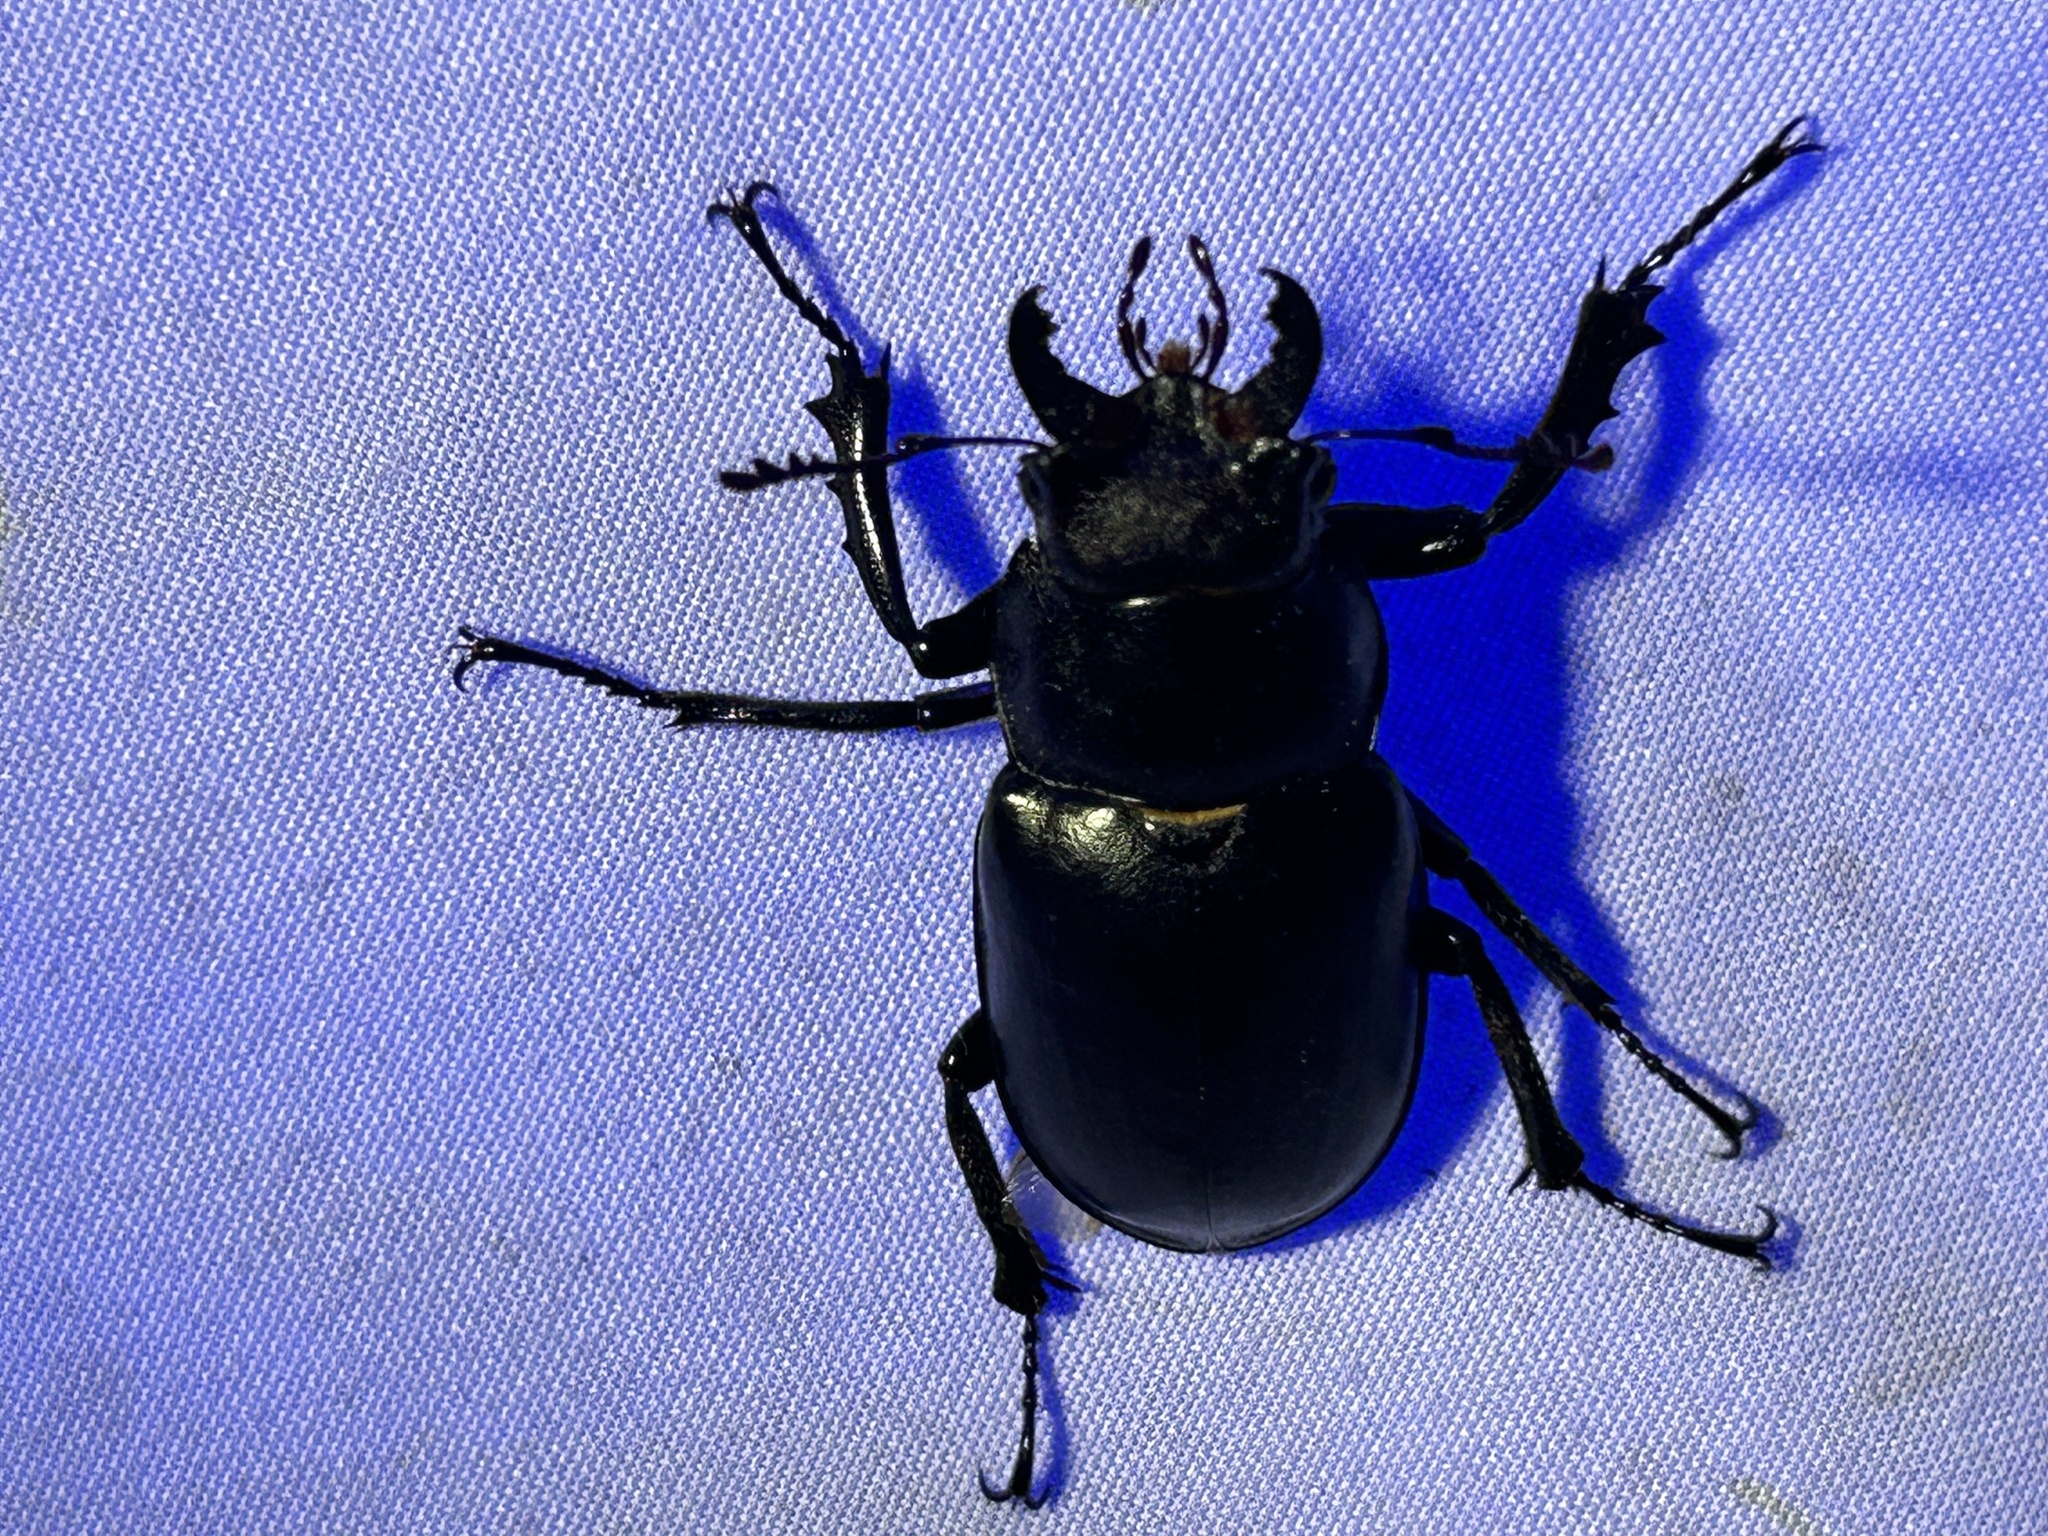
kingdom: Animalia
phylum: Arthropoda
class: Insecta
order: Coleoptera
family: Lucanidae
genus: Lucanus
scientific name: Lucanus placidus
